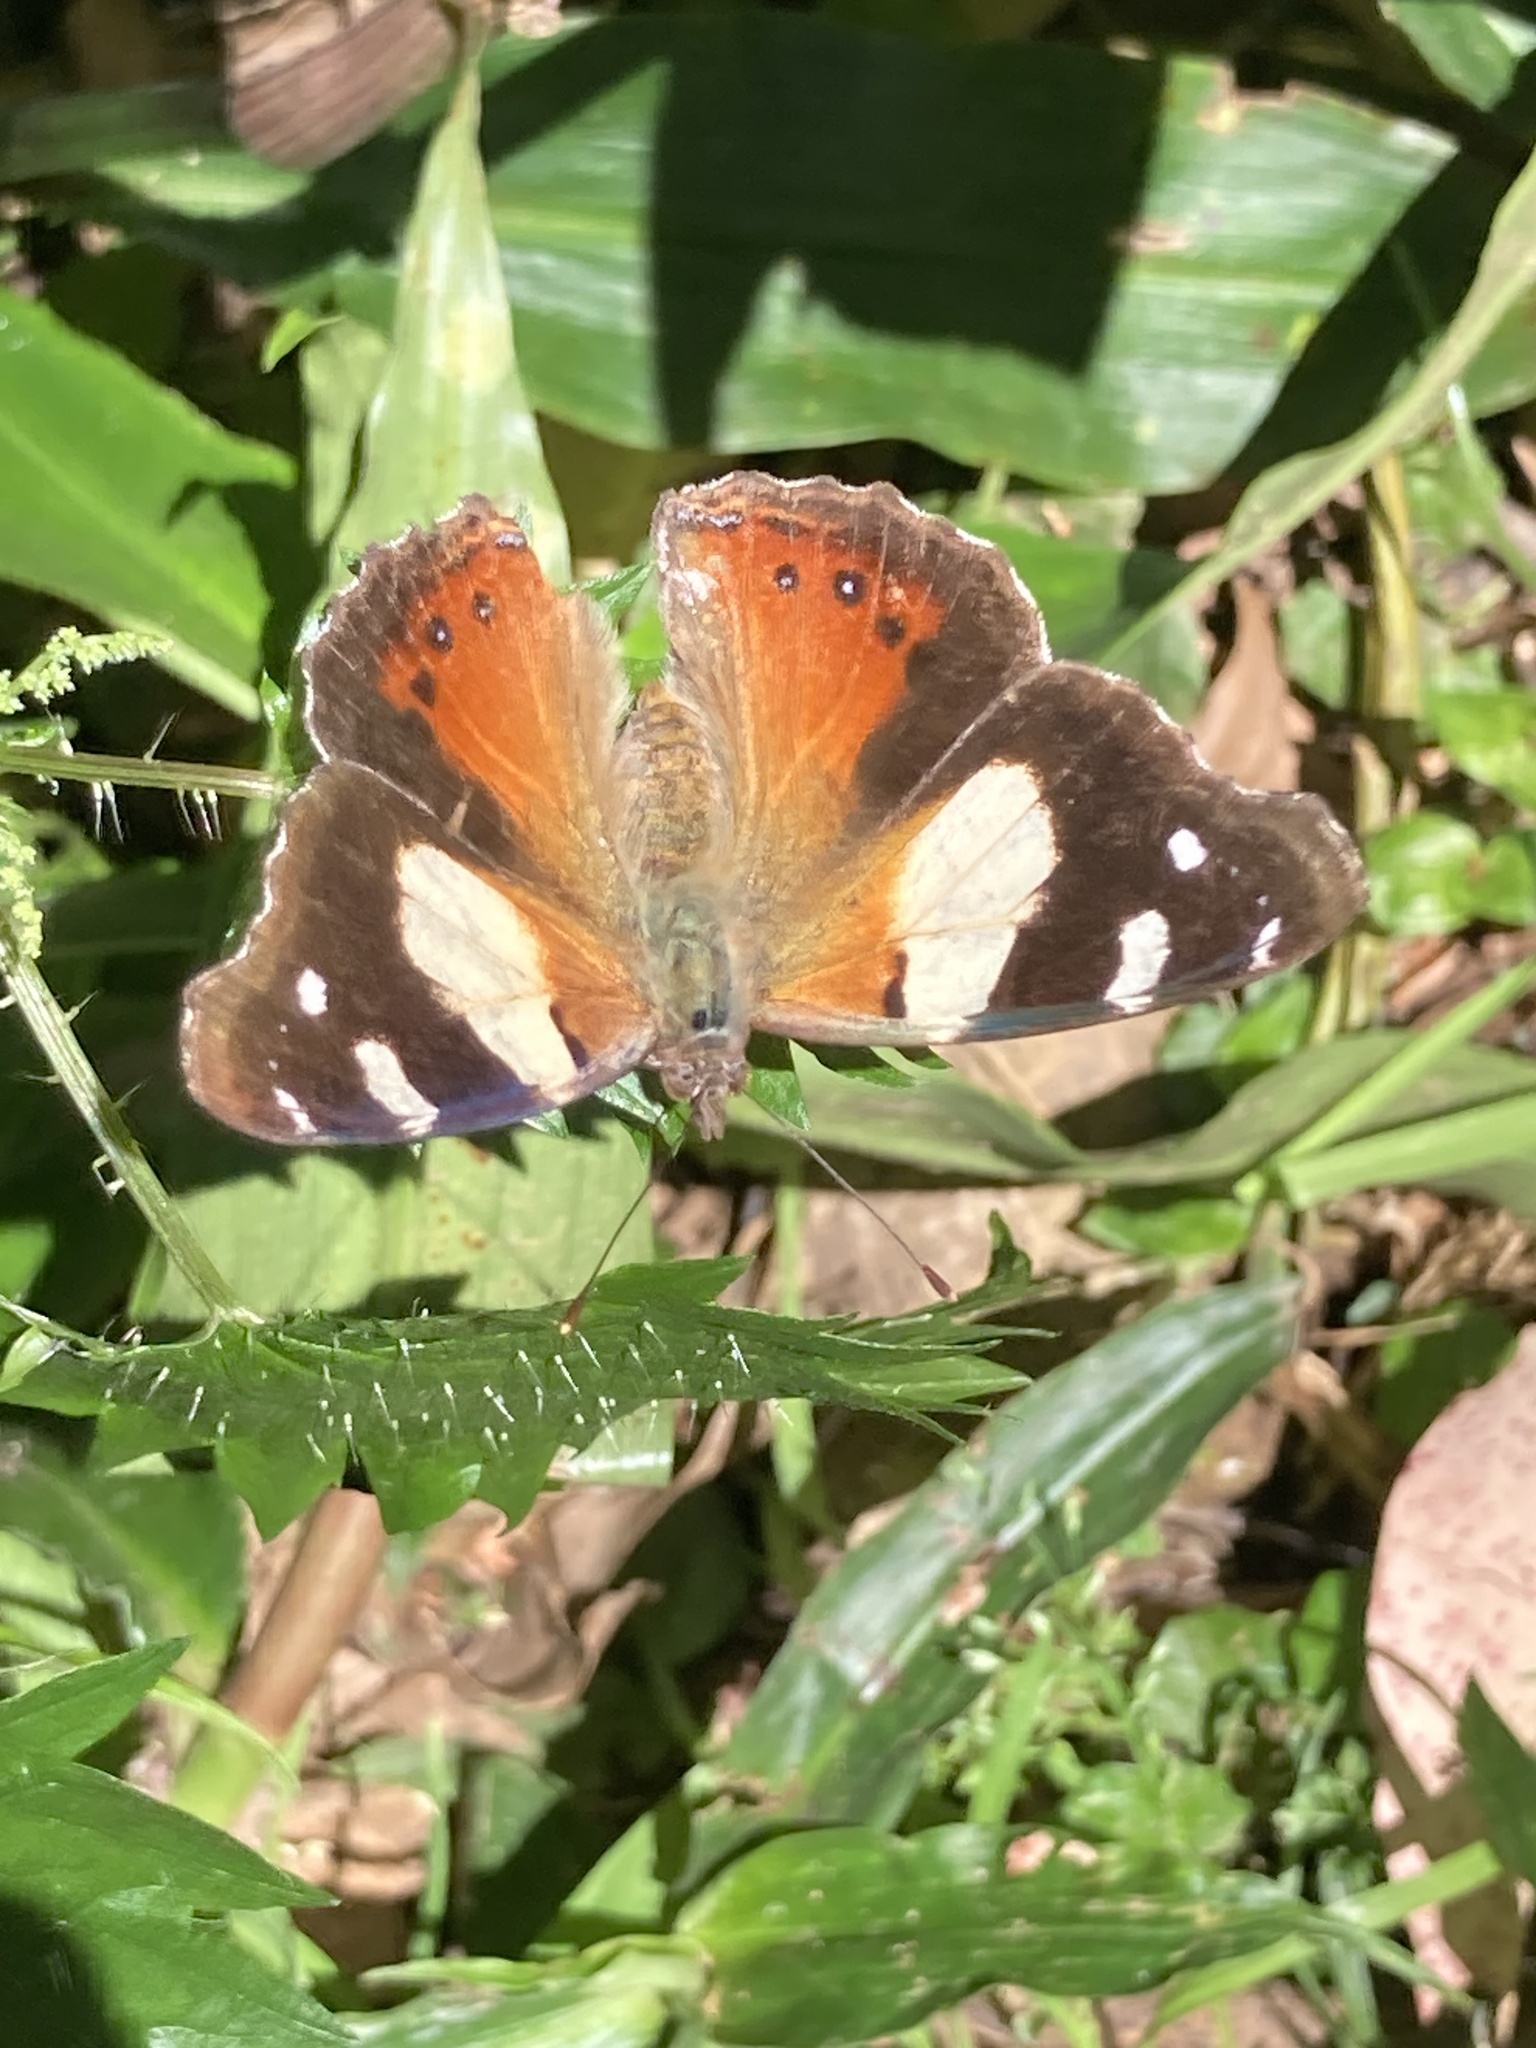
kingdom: Animalia
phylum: Arthropoda
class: Insecta
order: Lepidoptera
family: Nymphalidae
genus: Vanessa
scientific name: Vanessa itea
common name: Yellow admiral
